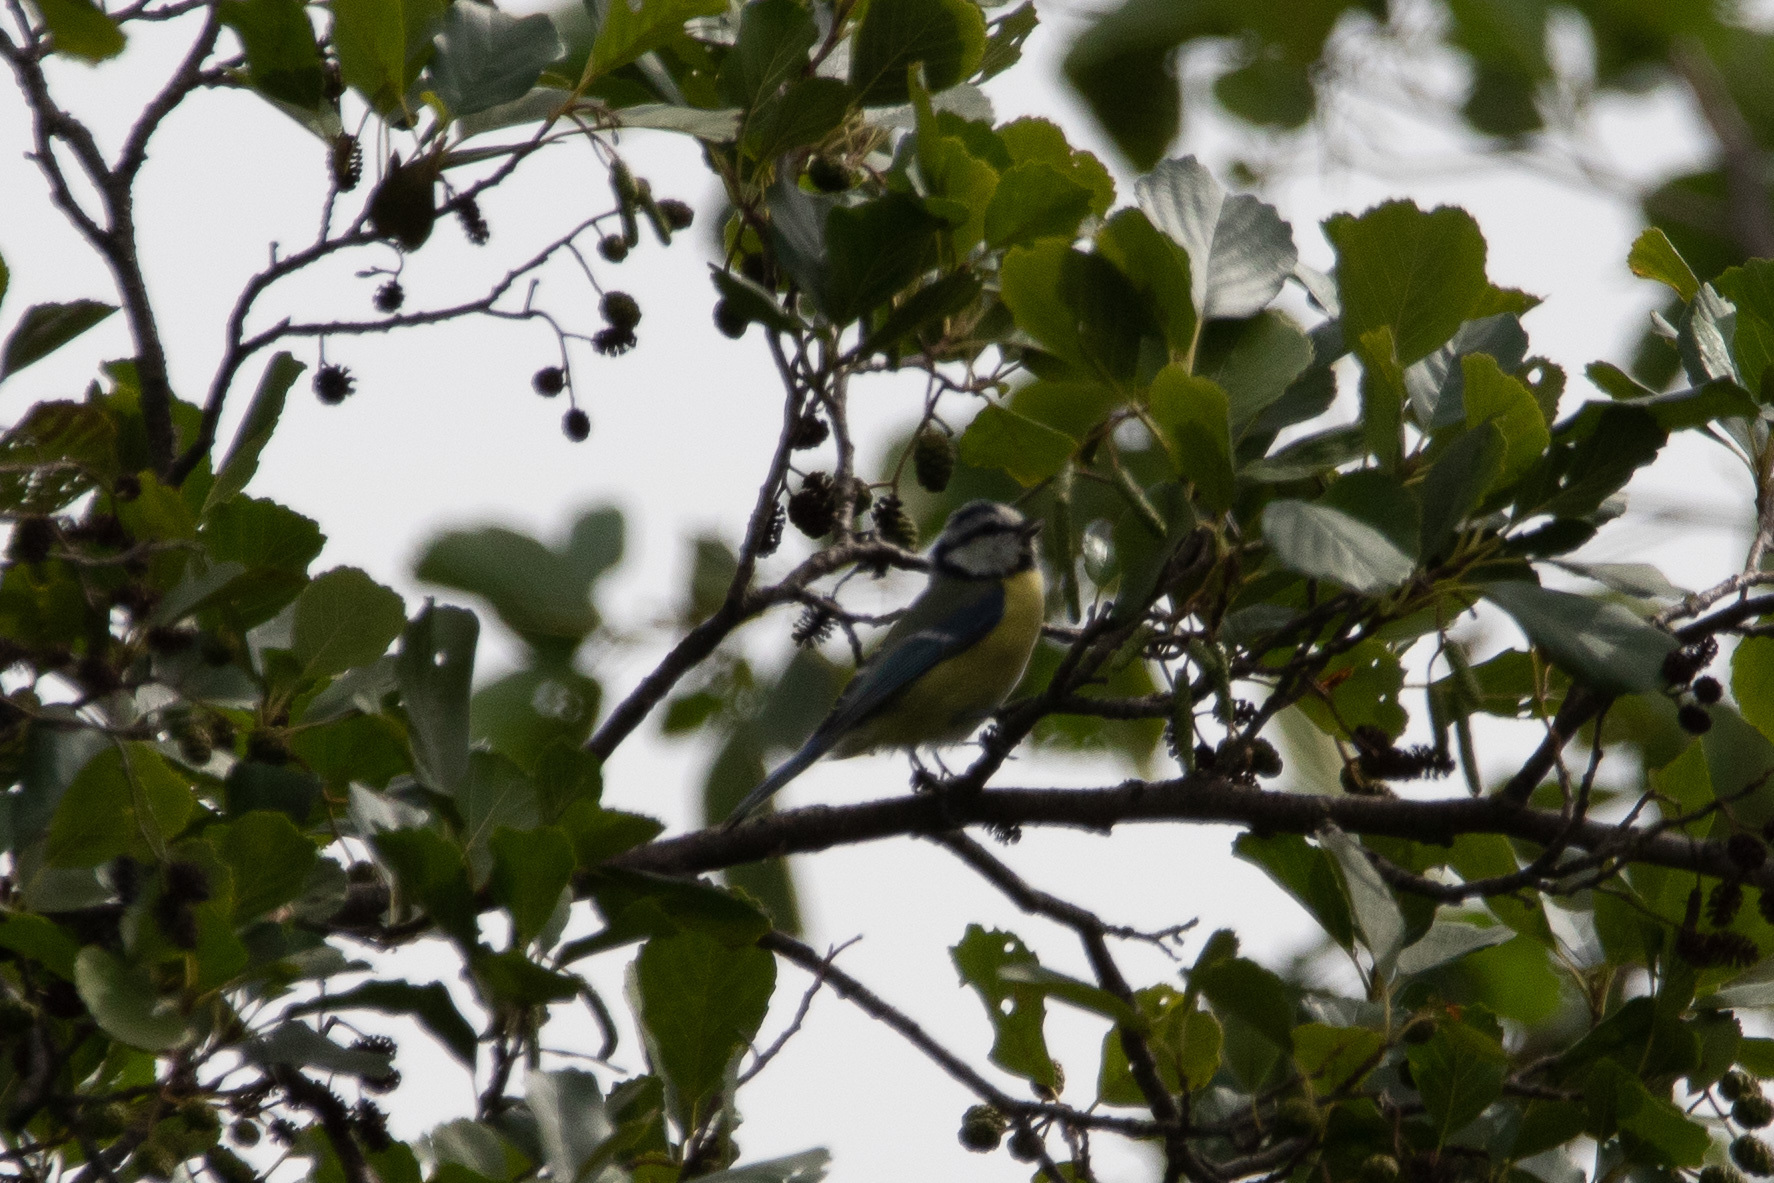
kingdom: Animalia
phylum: Chordata
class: Aves
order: Passeriformes
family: Paridae
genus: Cyanistes
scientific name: Cyanistes caeruleus
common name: Eurasian blue tit
